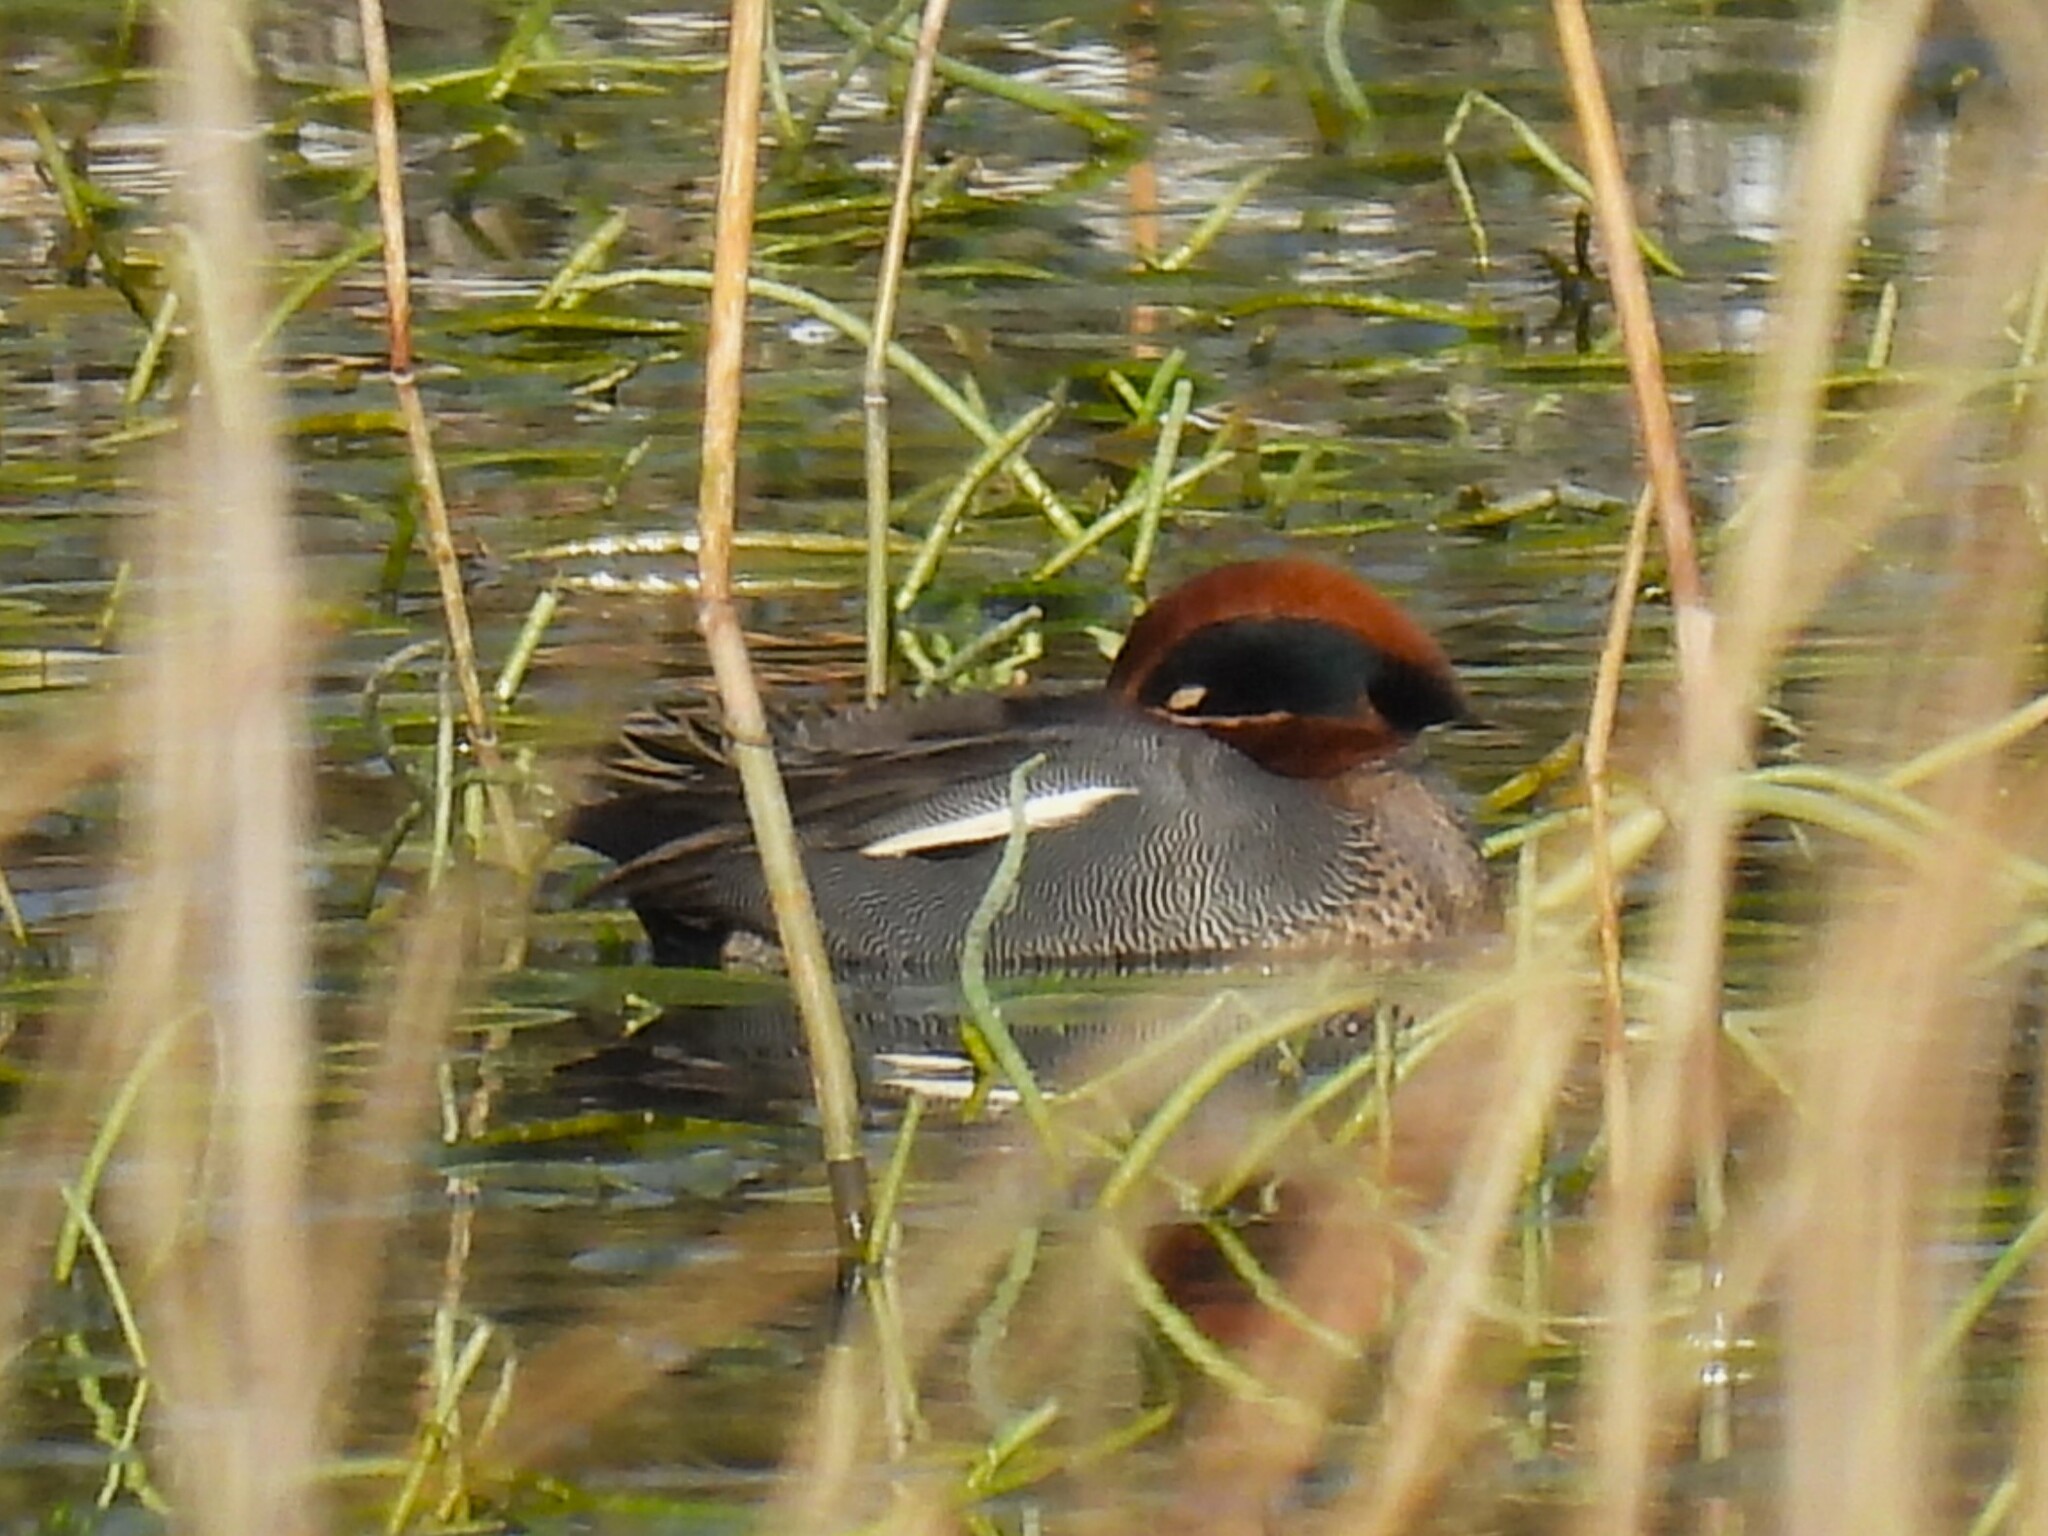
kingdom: Animalia
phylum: Chordata
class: Aves
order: Anseriformes
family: Anatidae
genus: Anas
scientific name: Anas crecca
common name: Eurasian teal
